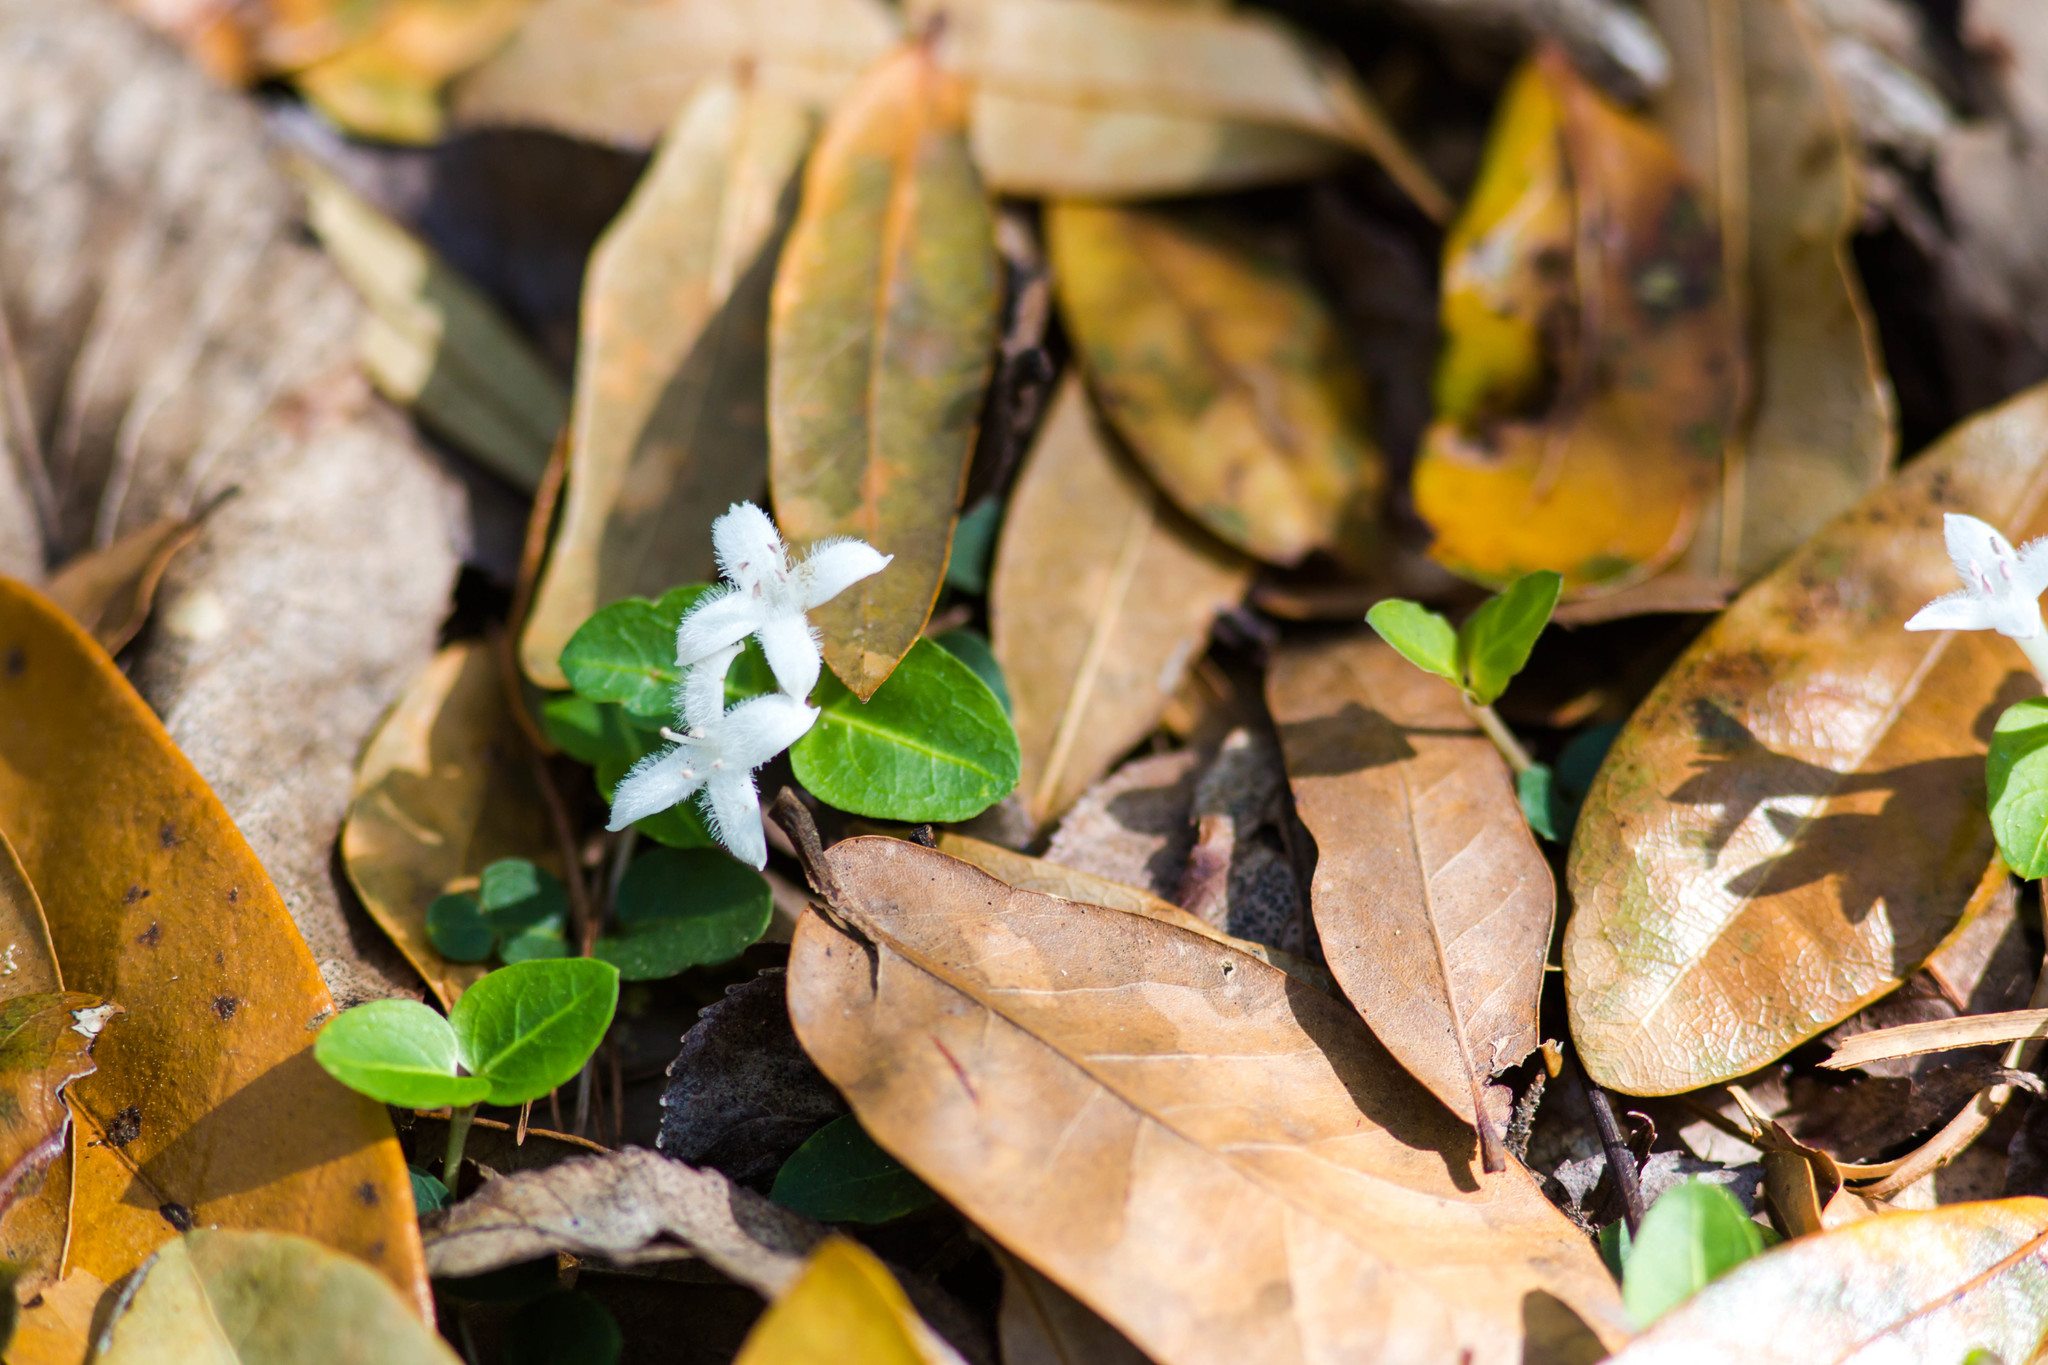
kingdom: Plantae
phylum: Tracheophyta
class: Magnoliopsida
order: Gentianales
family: Rubiaceae
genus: Mitchella
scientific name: Mitchella repens
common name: Partridge-berry
